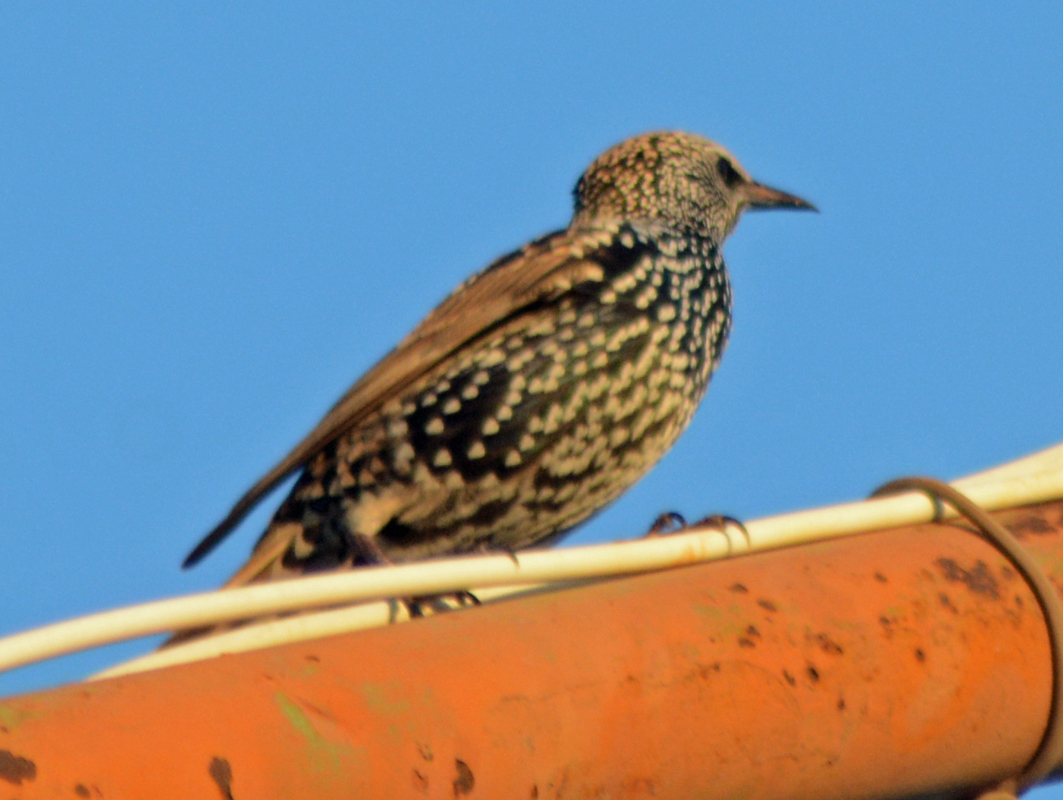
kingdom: Animalia
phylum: Chordata
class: Aves
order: Passeriformes
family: Sturnidae
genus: Sturnus
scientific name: Sturnus vulgaris
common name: Common starling
